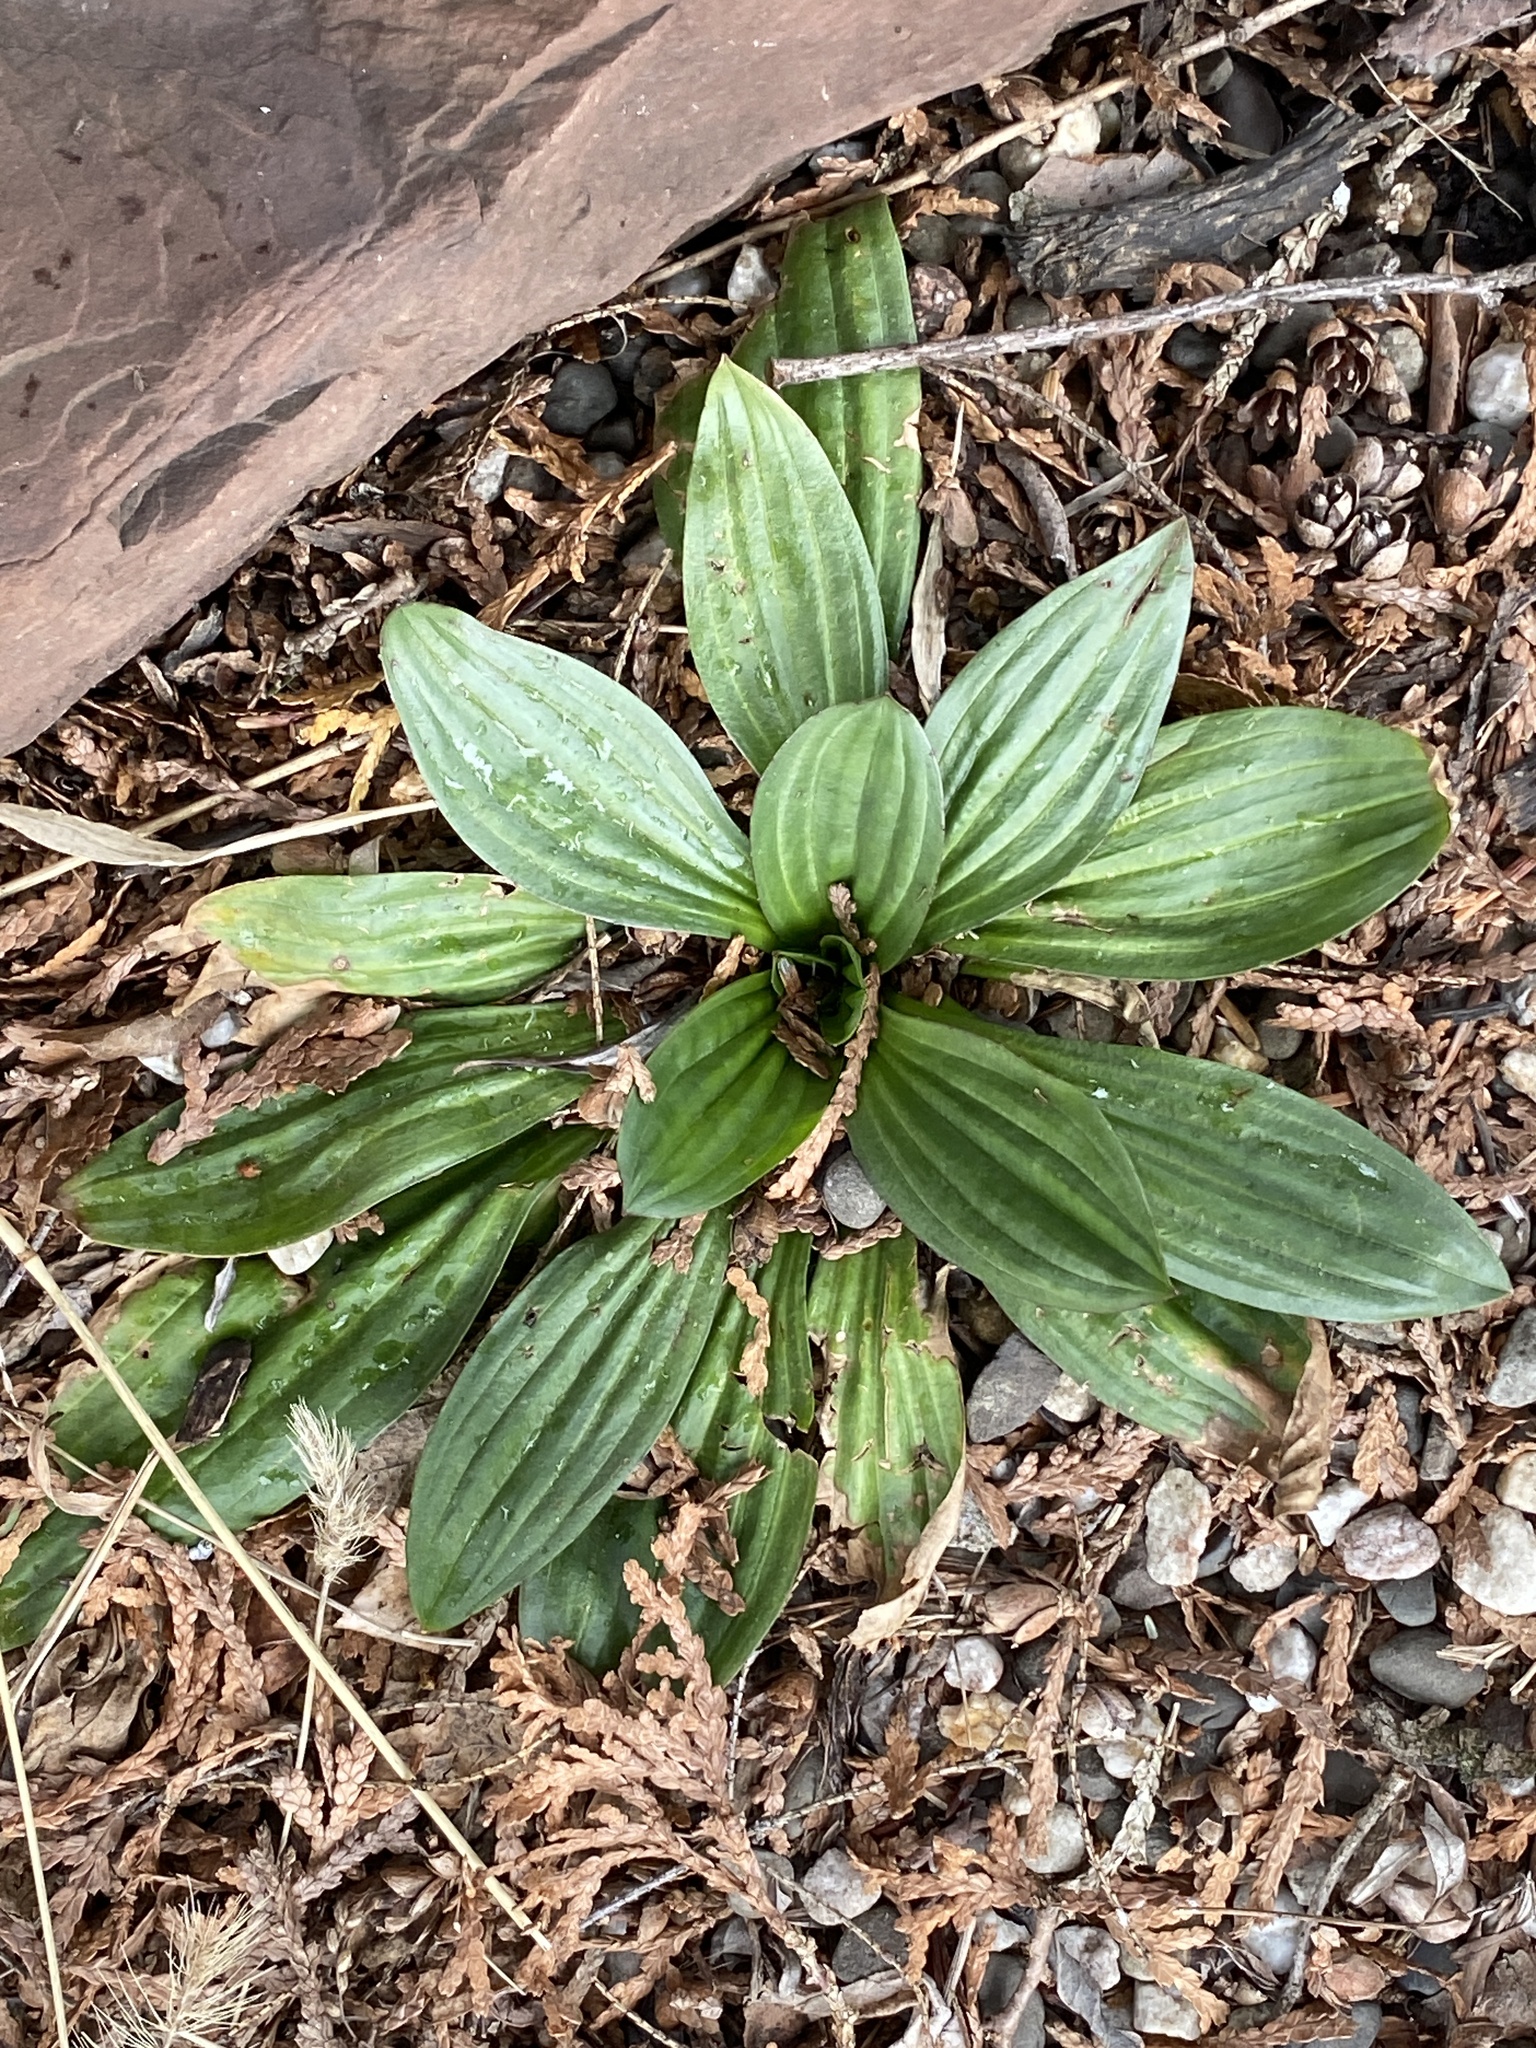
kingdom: Plantae
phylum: Tracheophyta
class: Magnoliopsida
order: Lamiales
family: Plantaginaceae
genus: Plantago
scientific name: Plantago lanceolata
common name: Ribwort plantain
